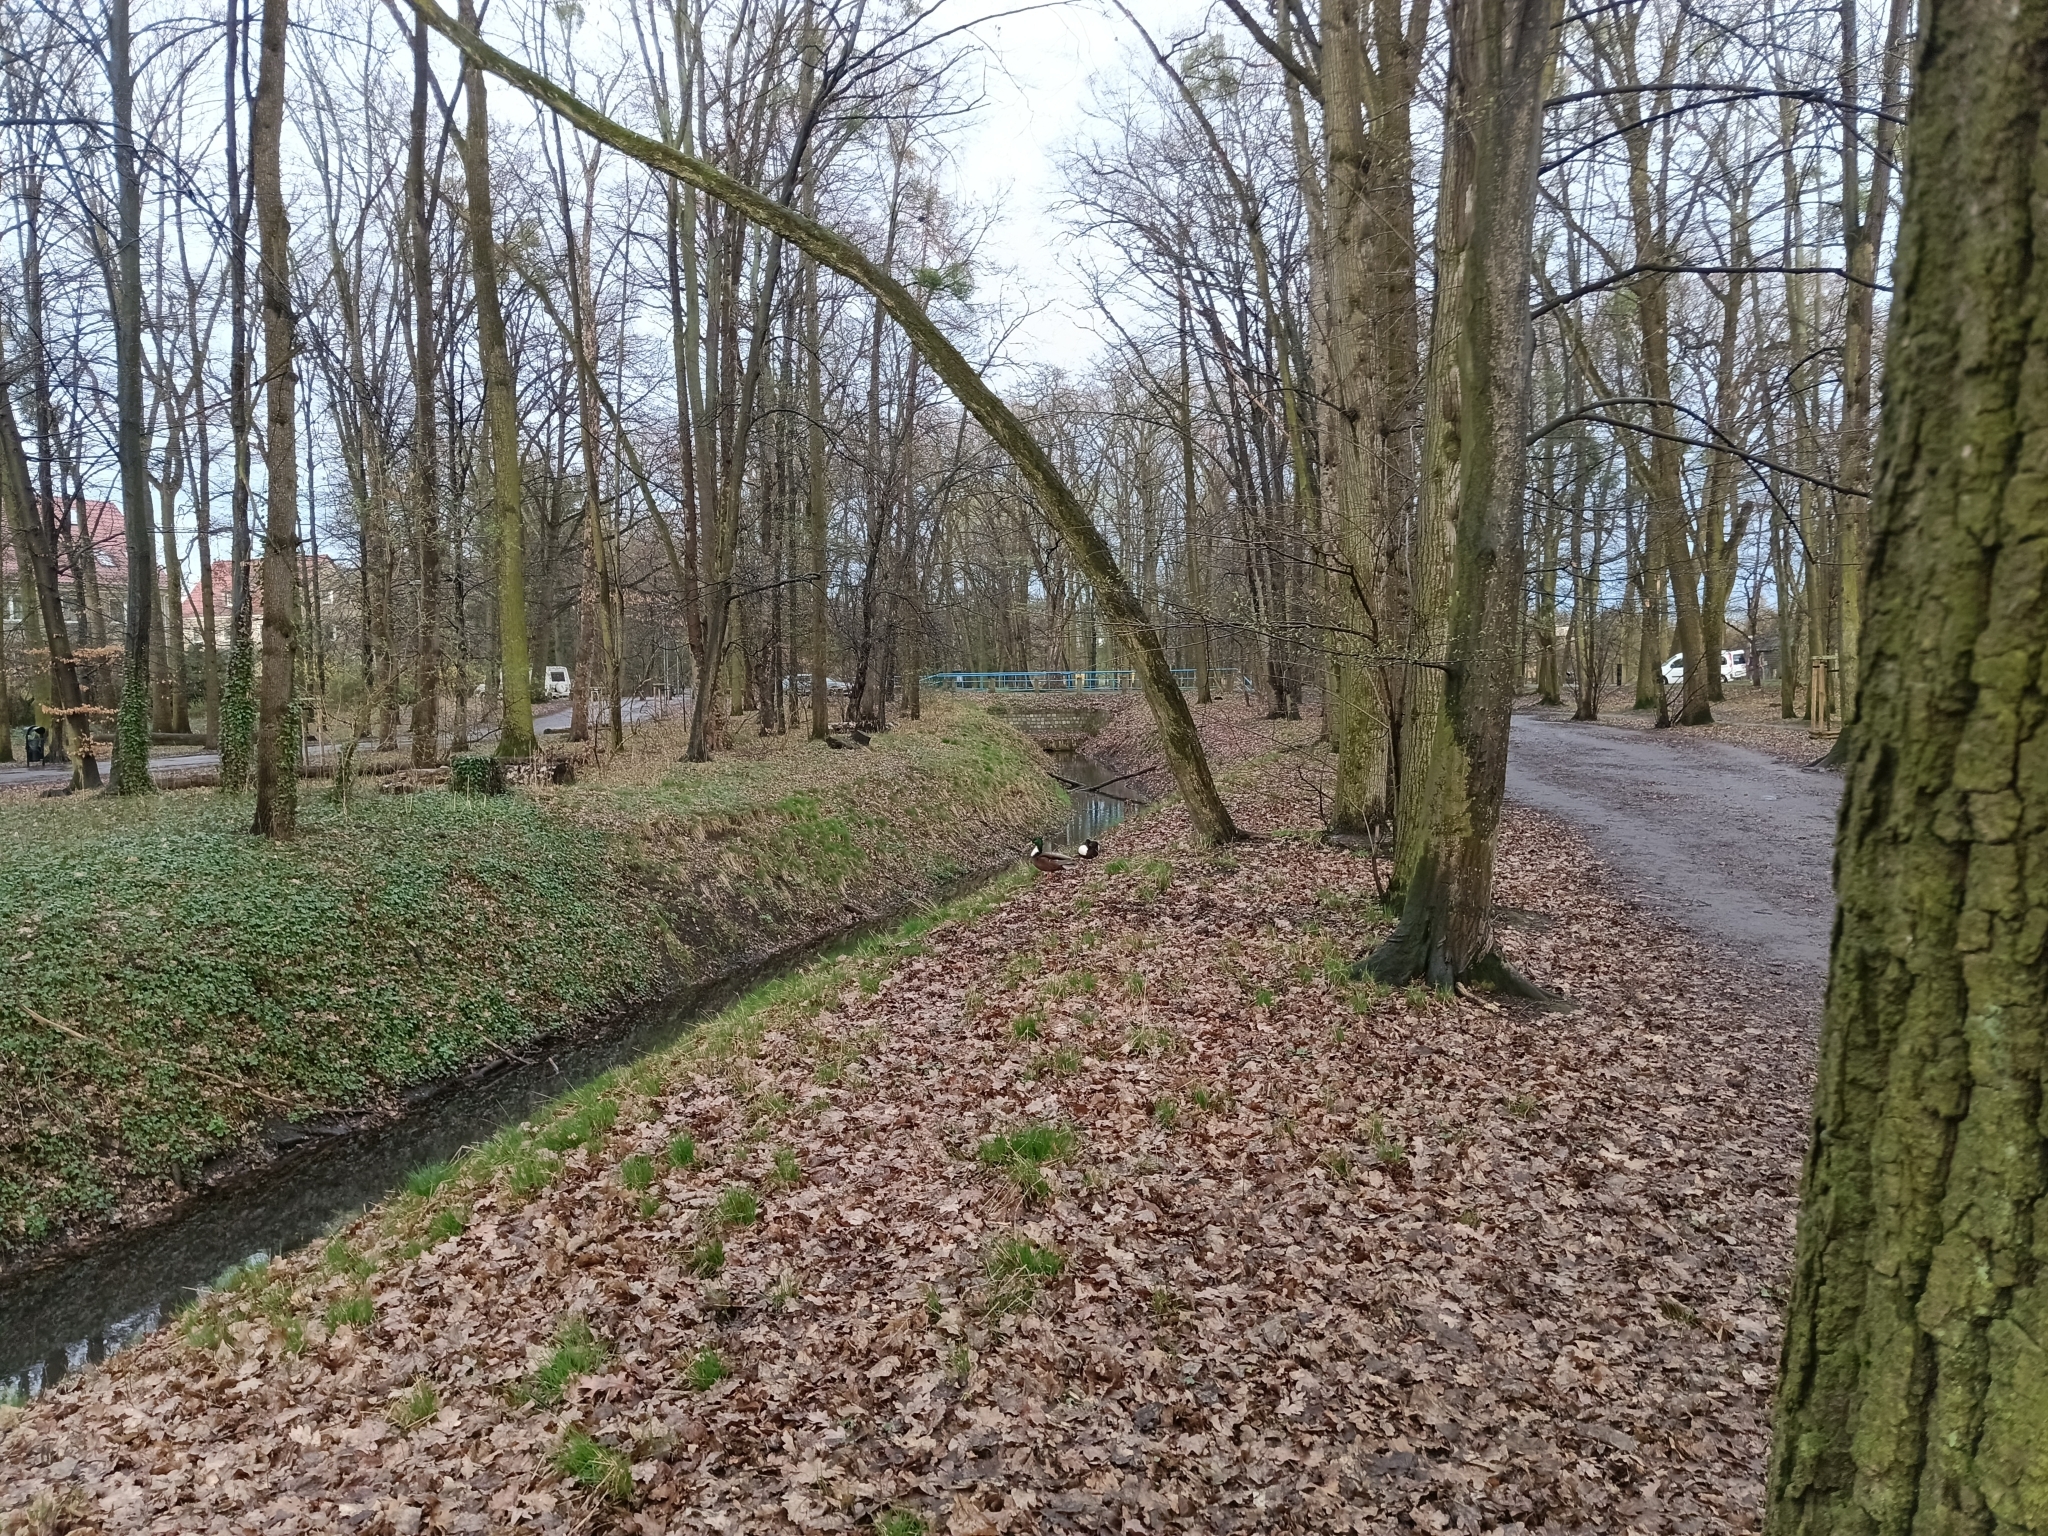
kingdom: Animalia
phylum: Chordata
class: Aves
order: Anseriformes
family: Anatidae
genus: Anas
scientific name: Anas platyrhynchos
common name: Mallard
